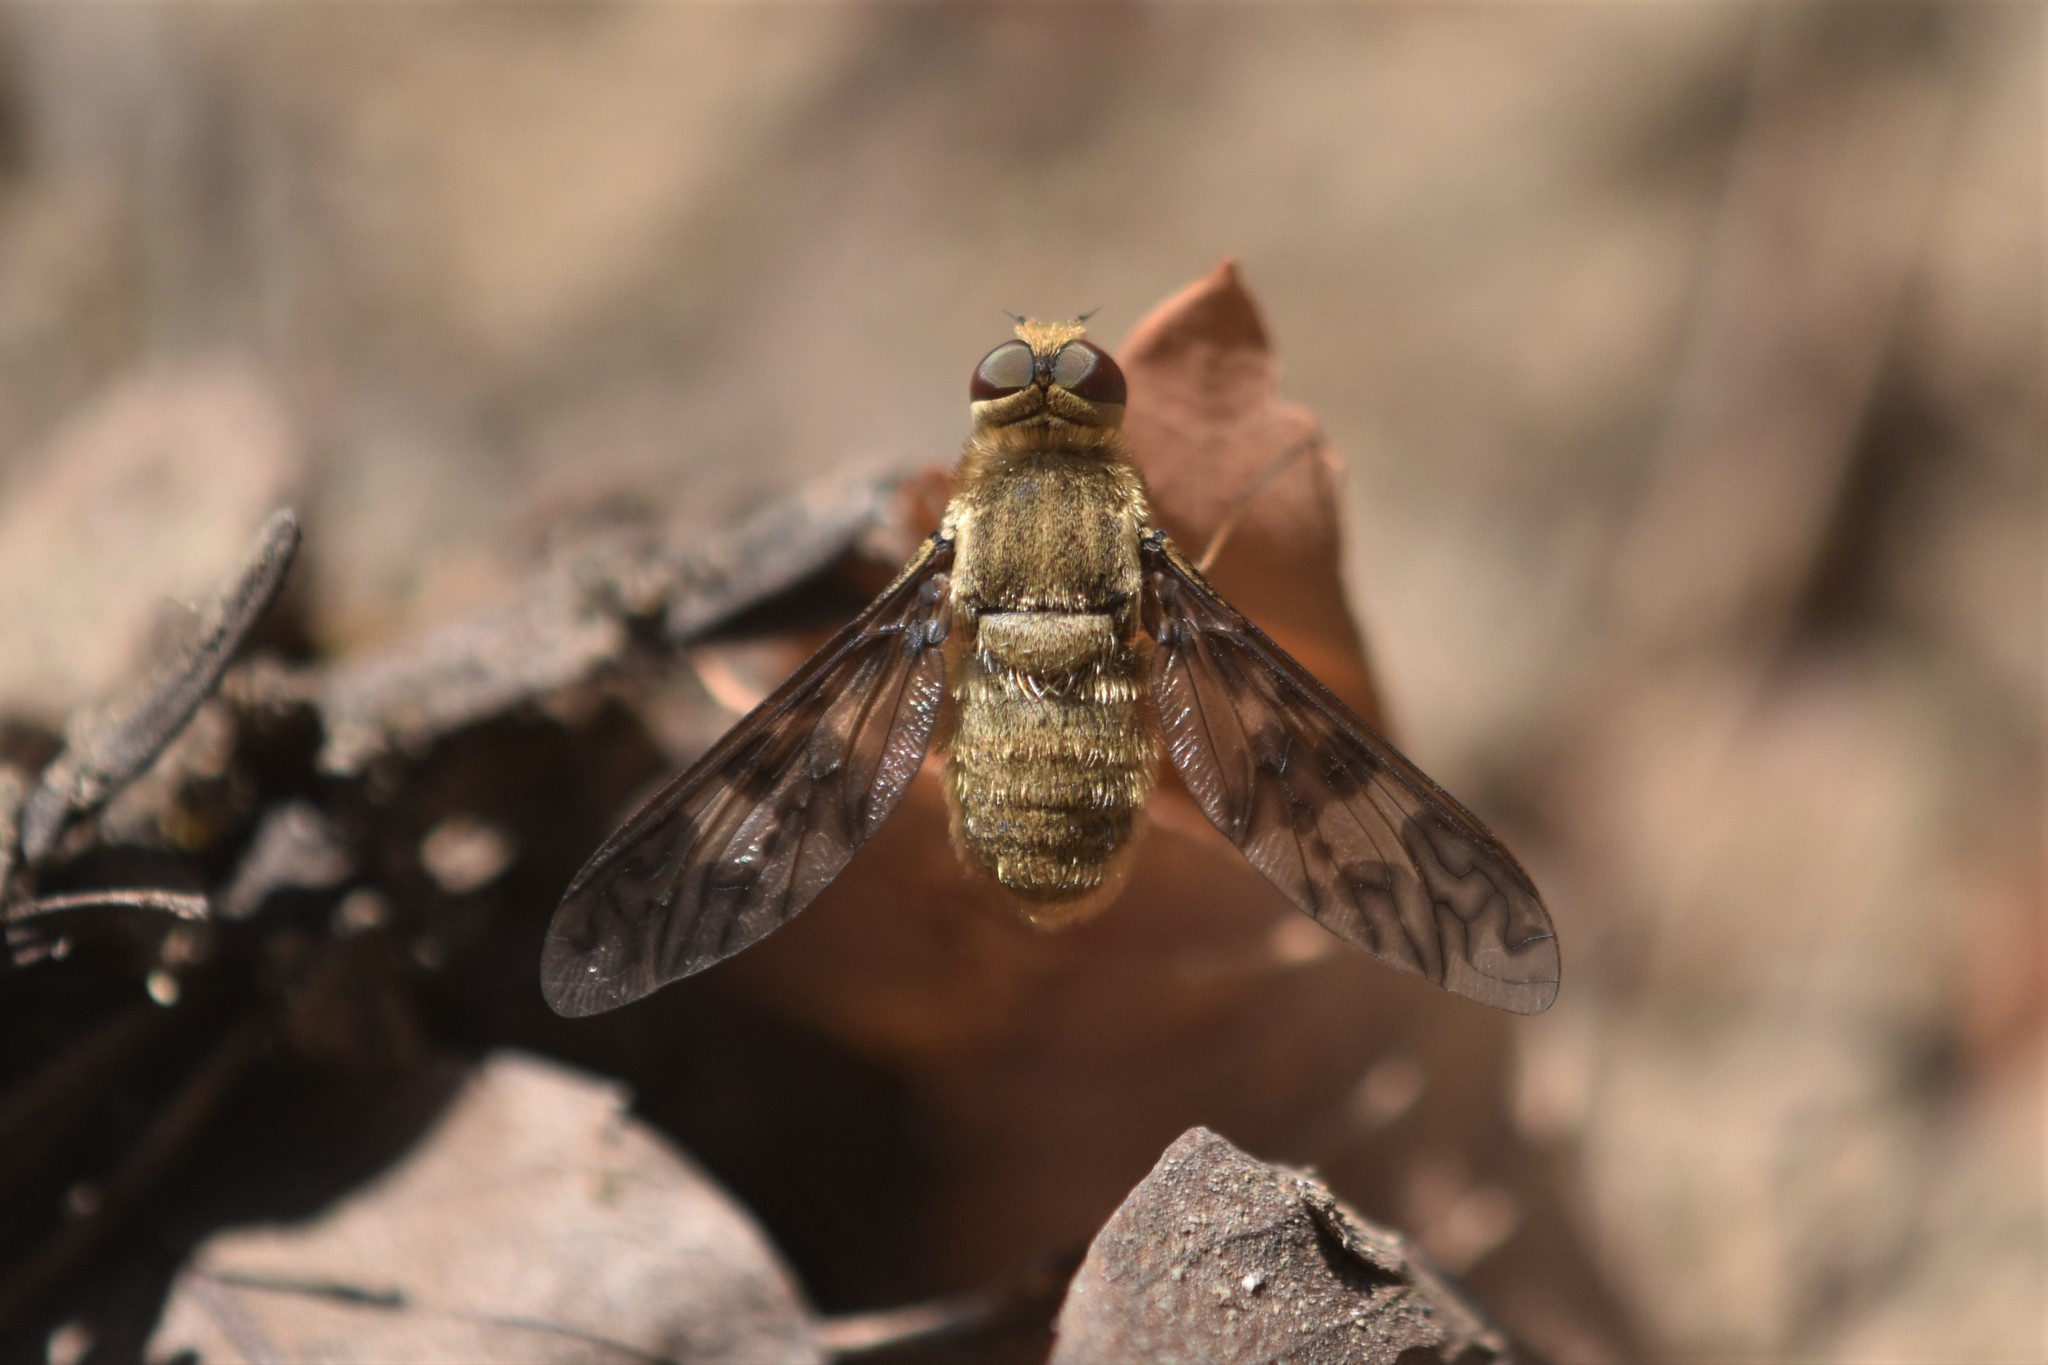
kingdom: Animalia
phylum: Arthropoda
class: Insecta
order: Diptera
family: Bombyliidae
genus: Dipalta
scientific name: Dipalta serpentina
